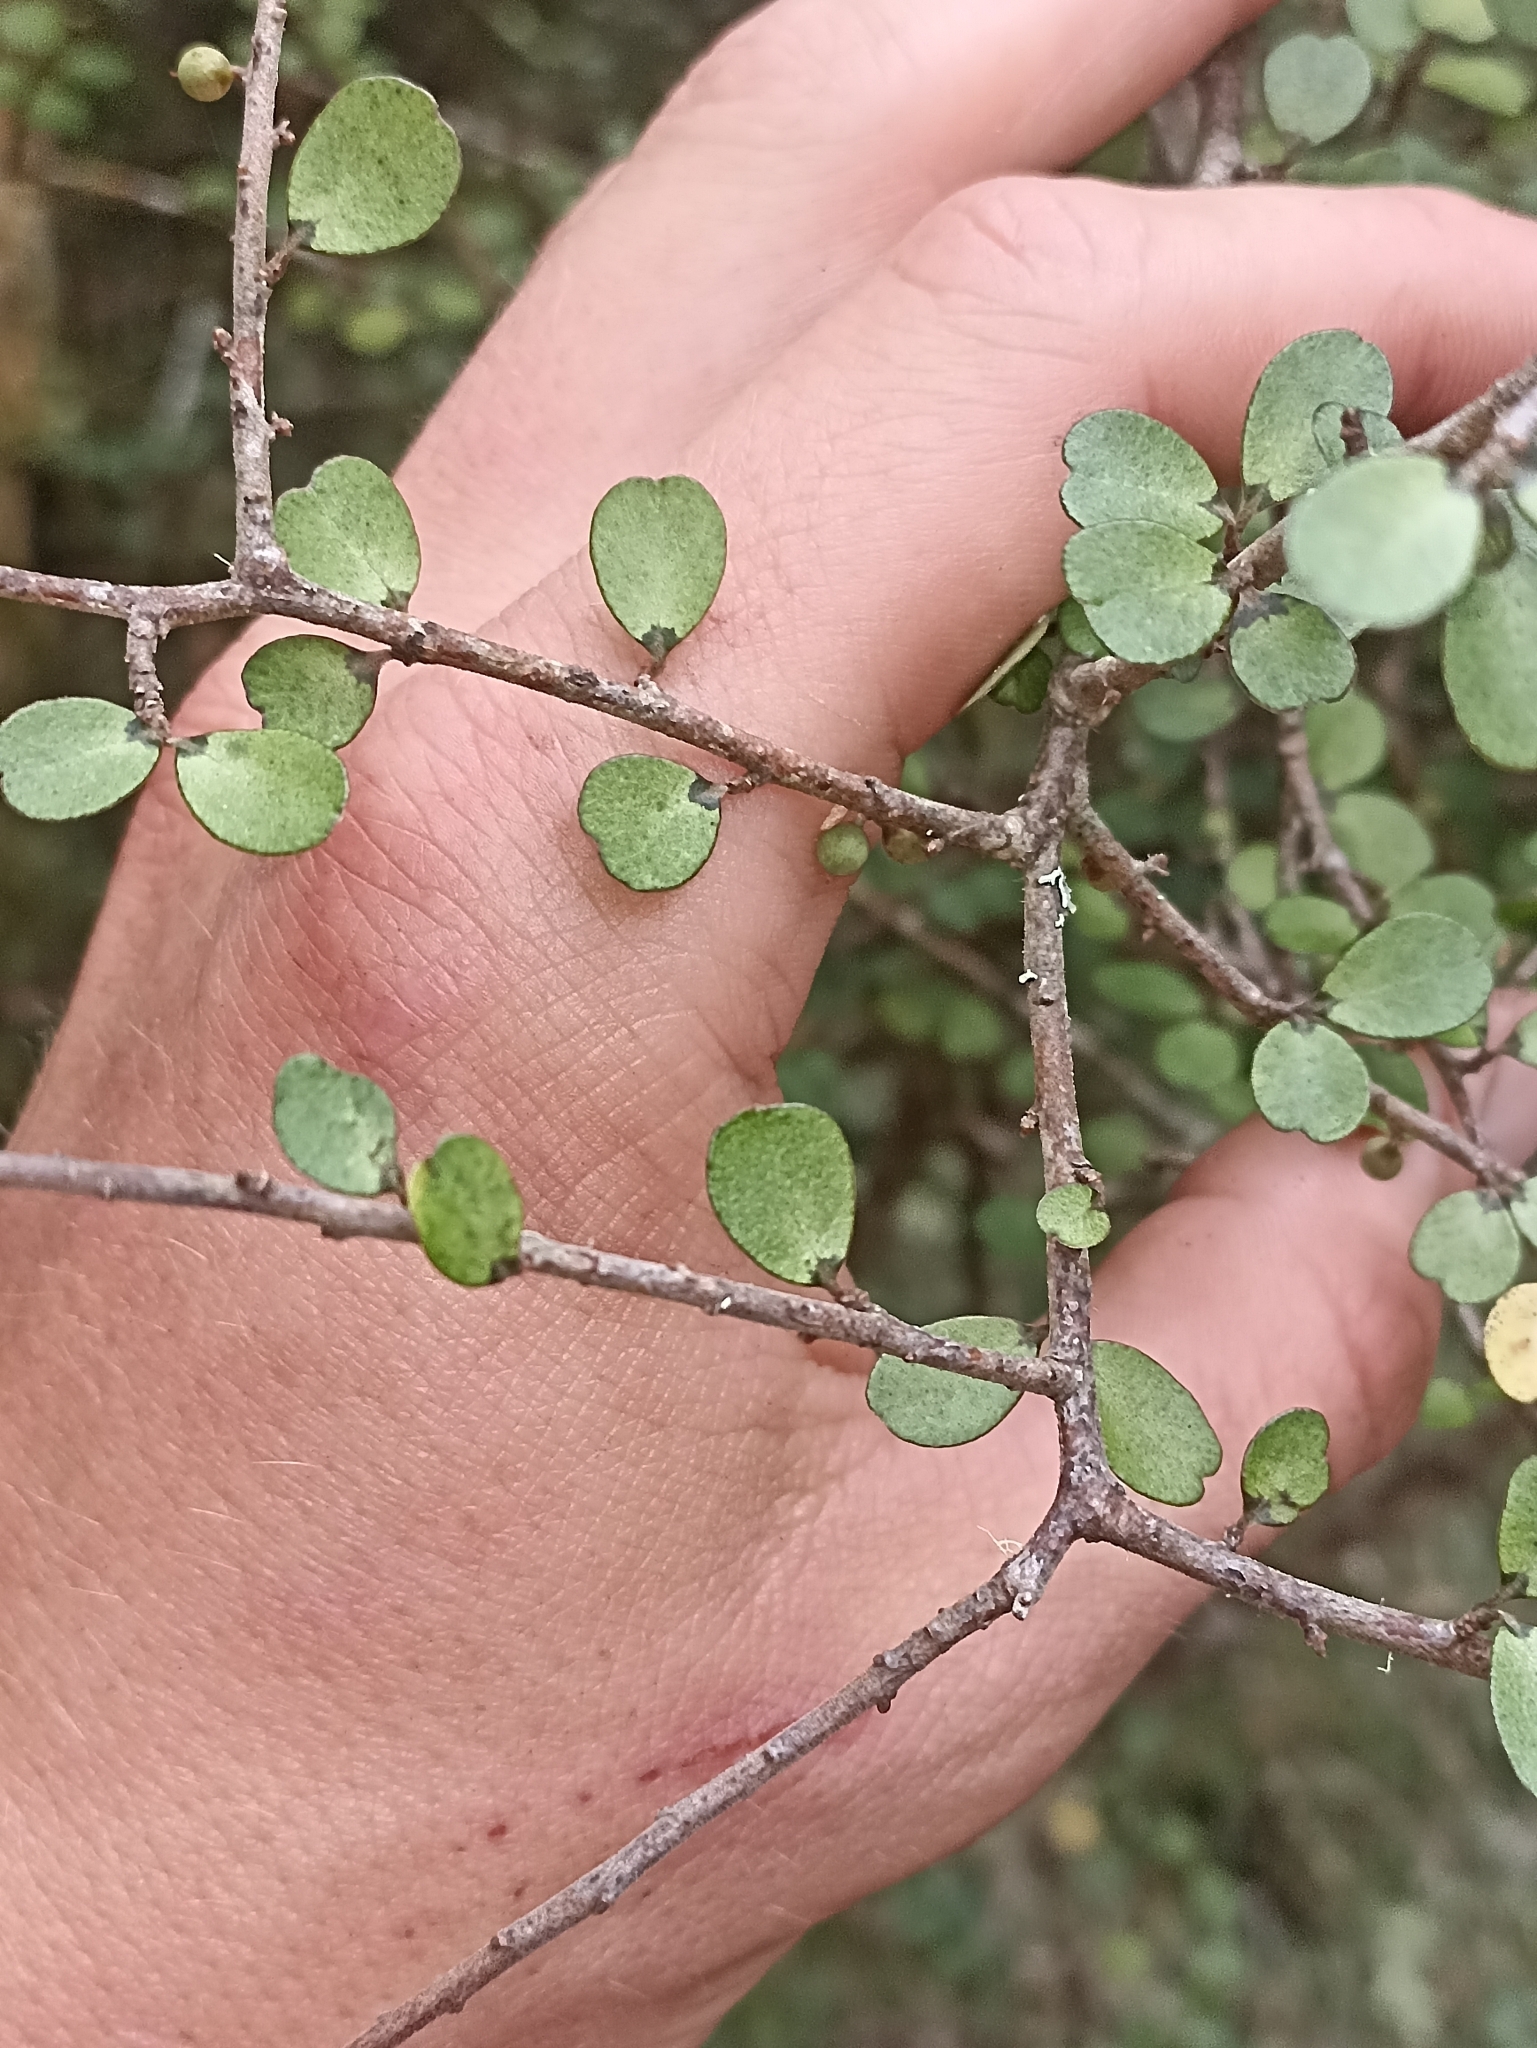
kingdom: Plantae
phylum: Tracheophyta
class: Magnoliopsida
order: Ericales
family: Primulaceae
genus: Myrsine
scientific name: Myrsine divaricata
